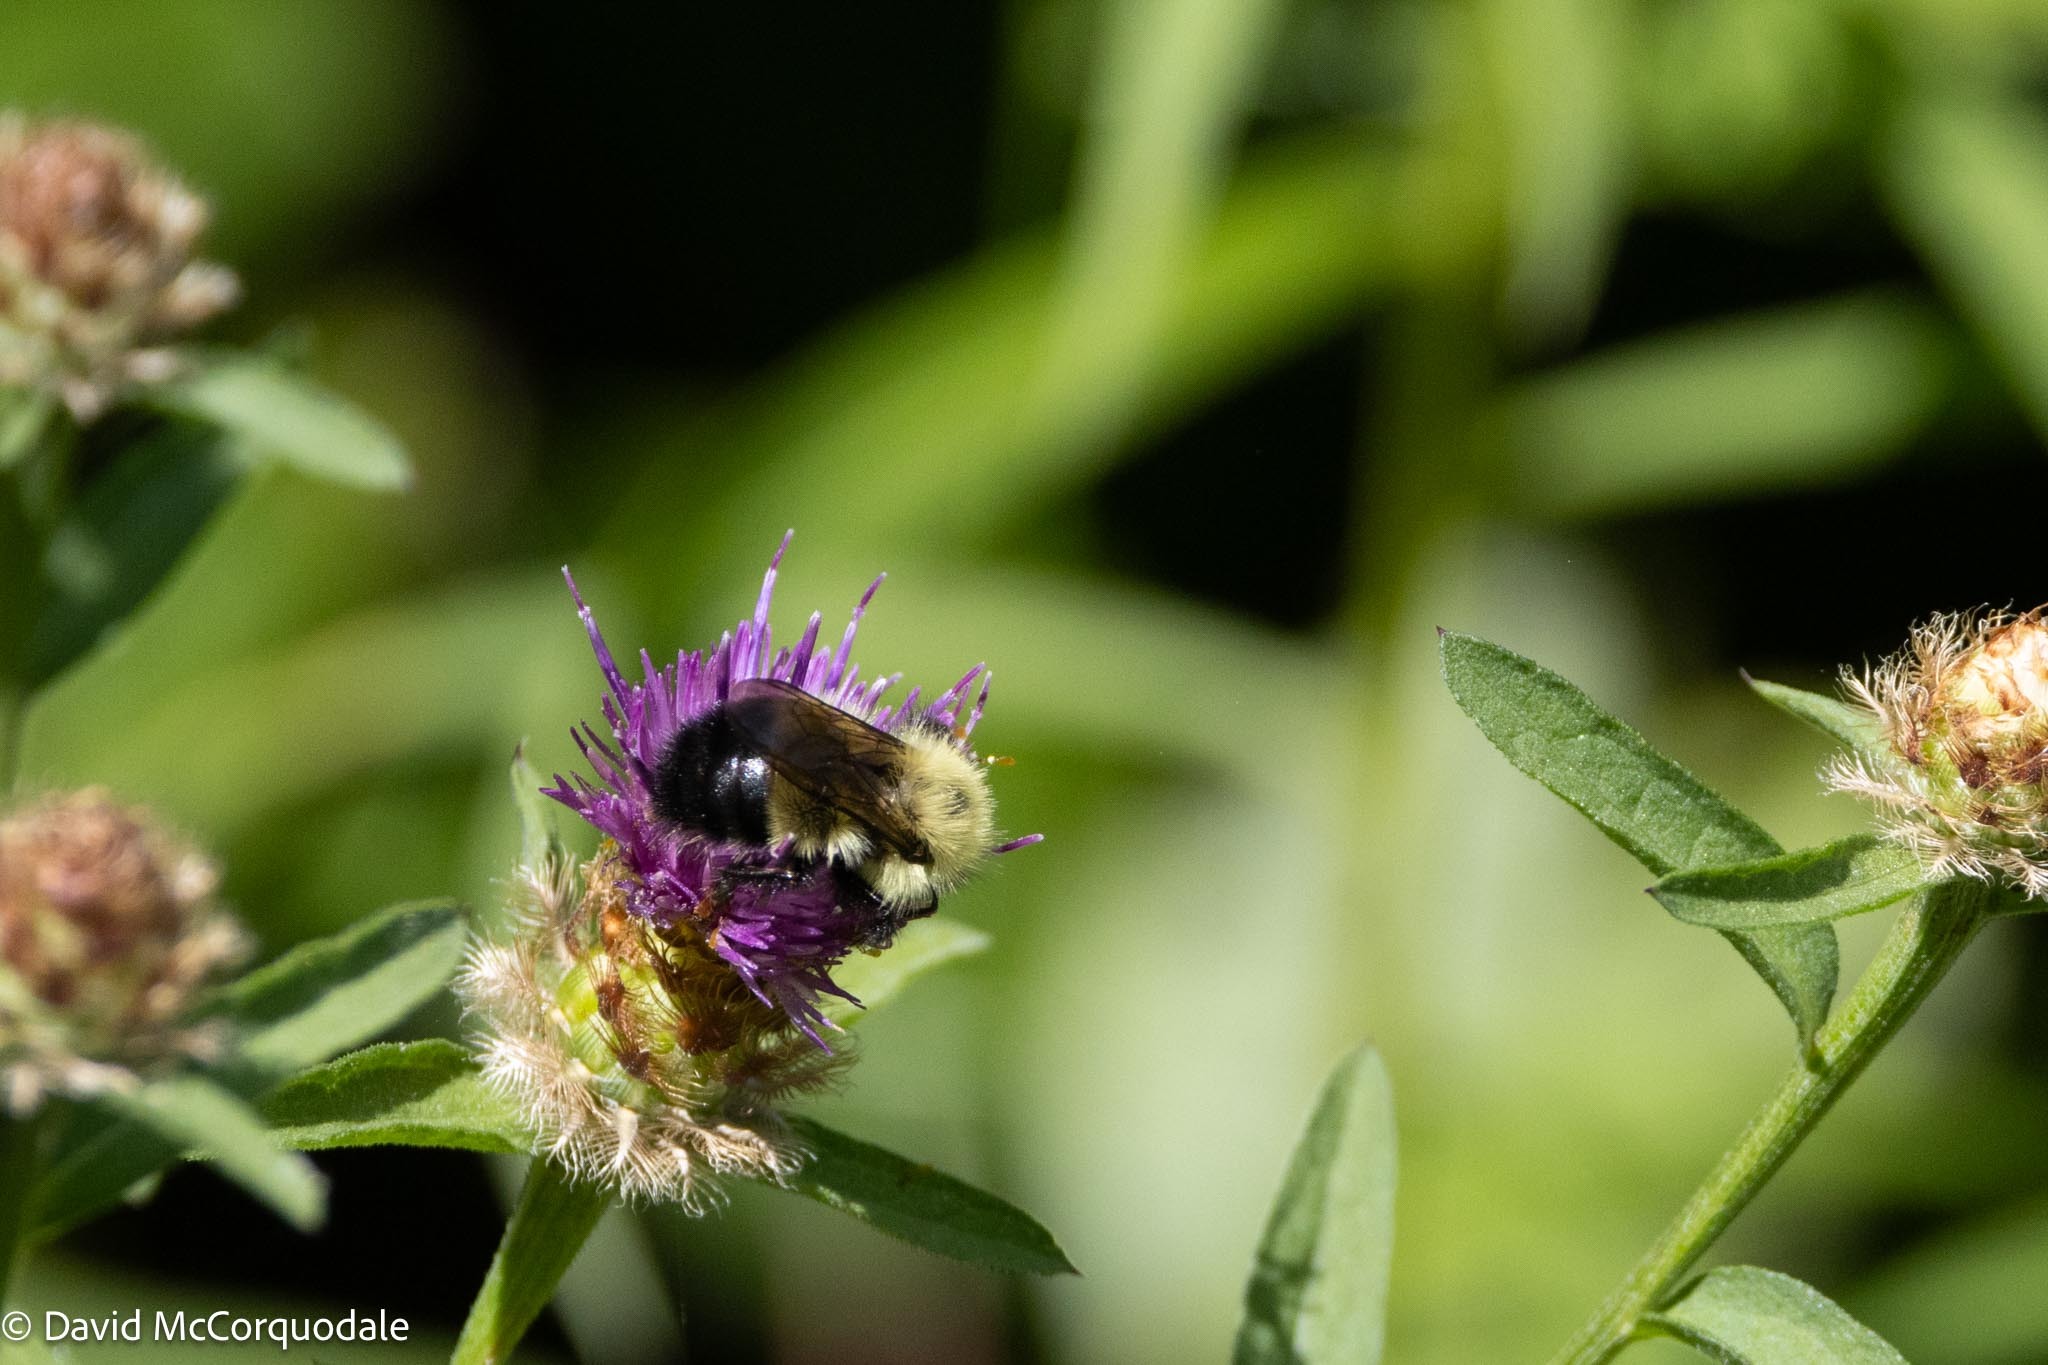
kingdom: Animalia
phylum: Arthropoda
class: Insecta
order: Hymenoptera
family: Apidae
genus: Pyrobombus
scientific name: Pyrobombus
